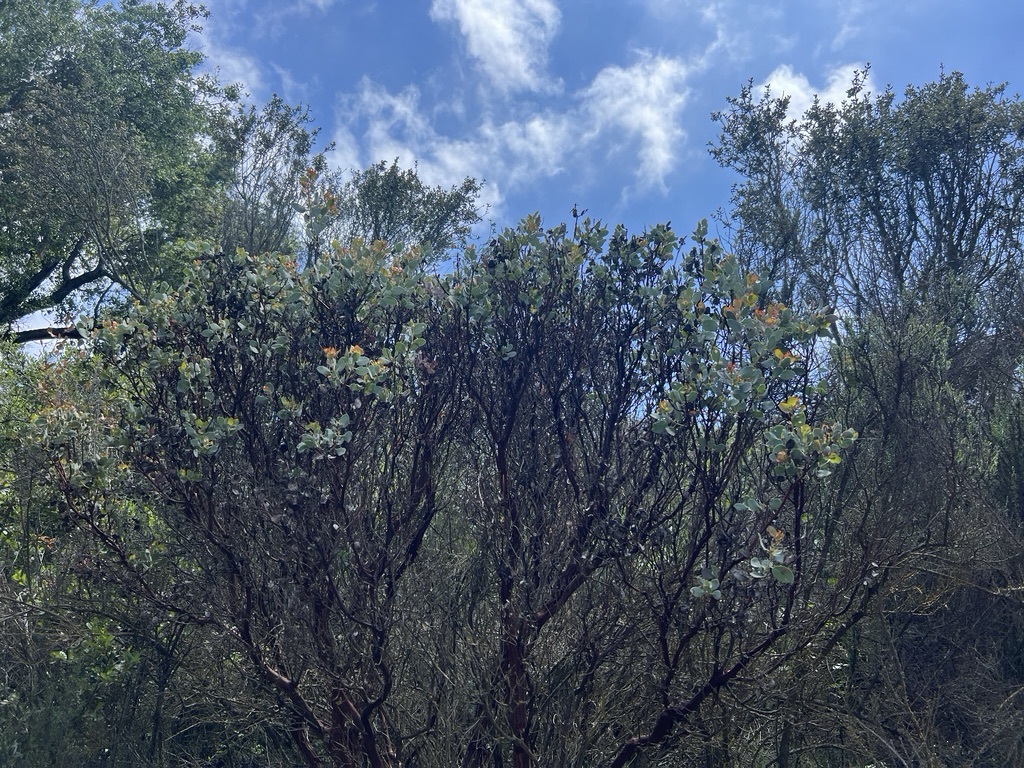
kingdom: Plantae
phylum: Tracheophyta
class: Magnoliopsida
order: Ericales
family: Ericaceae
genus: Arctostaphylos
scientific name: Arctostaphylos glauca
